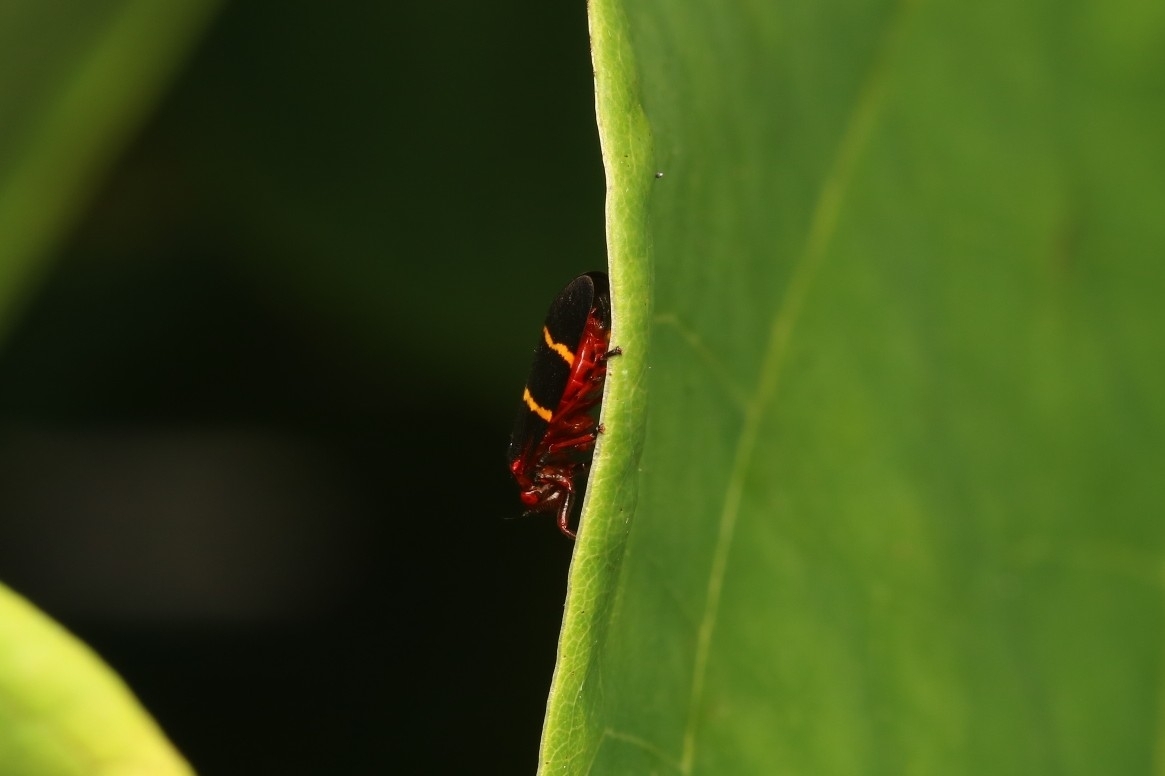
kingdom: Animalia
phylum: Arthropoda
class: Insecta
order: Hemiptera
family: Cercopidae
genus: Prosapia
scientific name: Prosapia bicincta
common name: Twolined spittlebug
